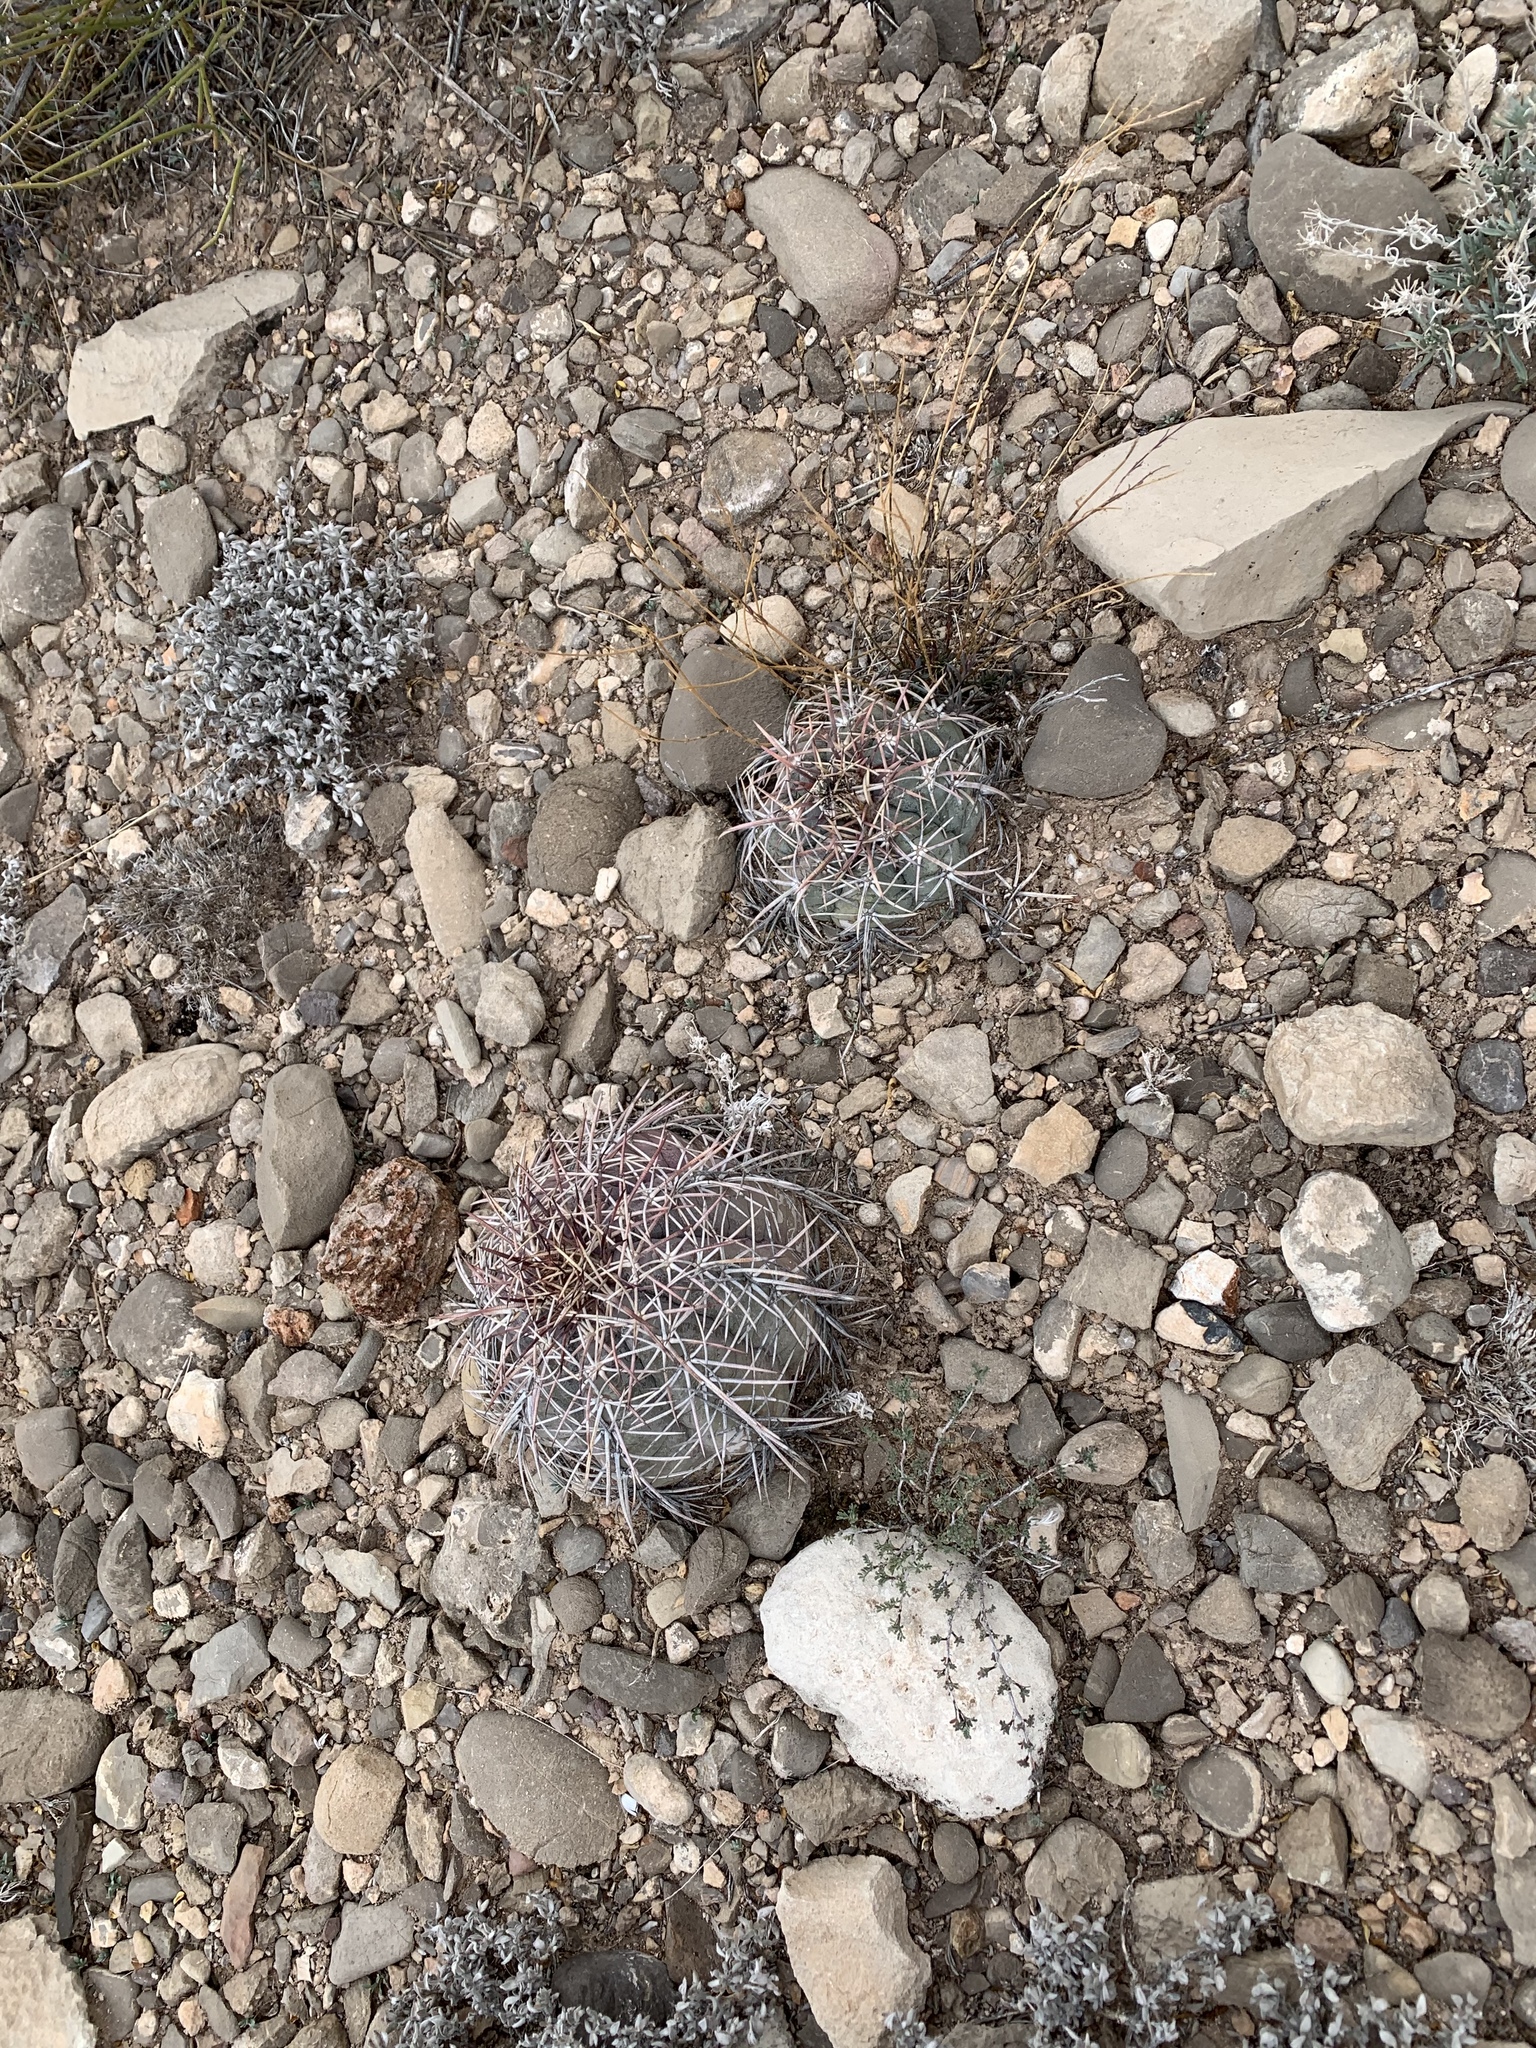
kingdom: Plantae
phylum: Tracheophyta
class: Magnoliopsida
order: Caryophyllales
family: Cactaceae
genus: Echinocactus
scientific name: Echinocactus horizonthalonius
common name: Devilshead
